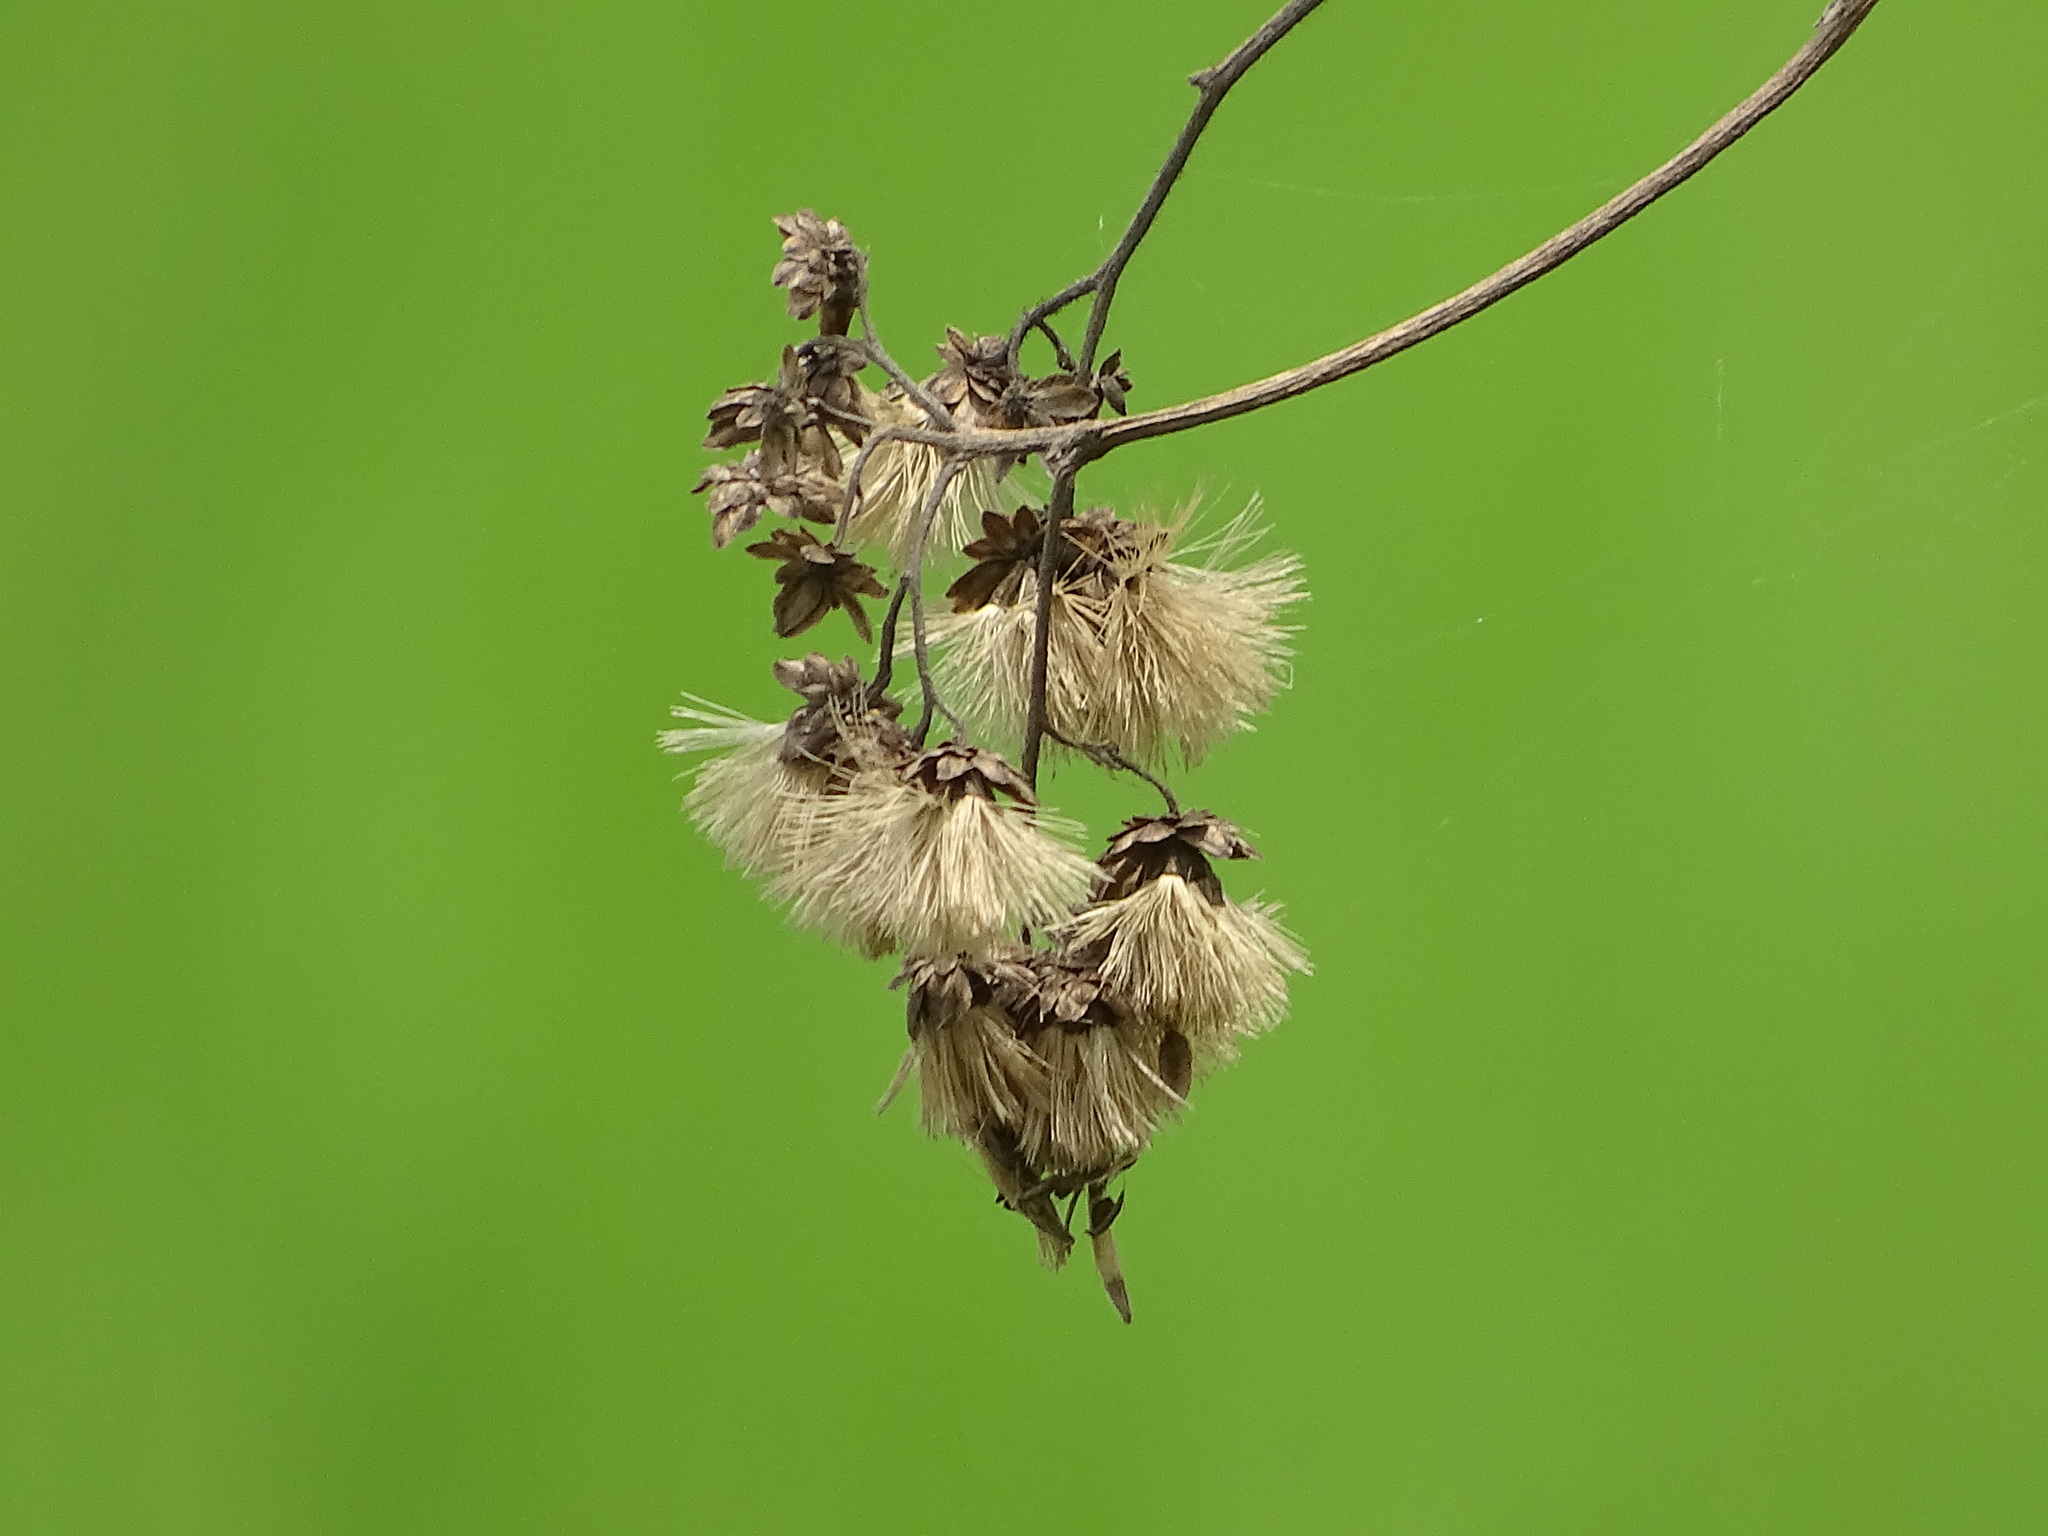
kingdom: Plantae
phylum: Tracheophyta
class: Magnoliopsida
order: Asterales
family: Asteraceae
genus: Gymnanthemum
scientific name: Gymnanthemum amygdalinum
